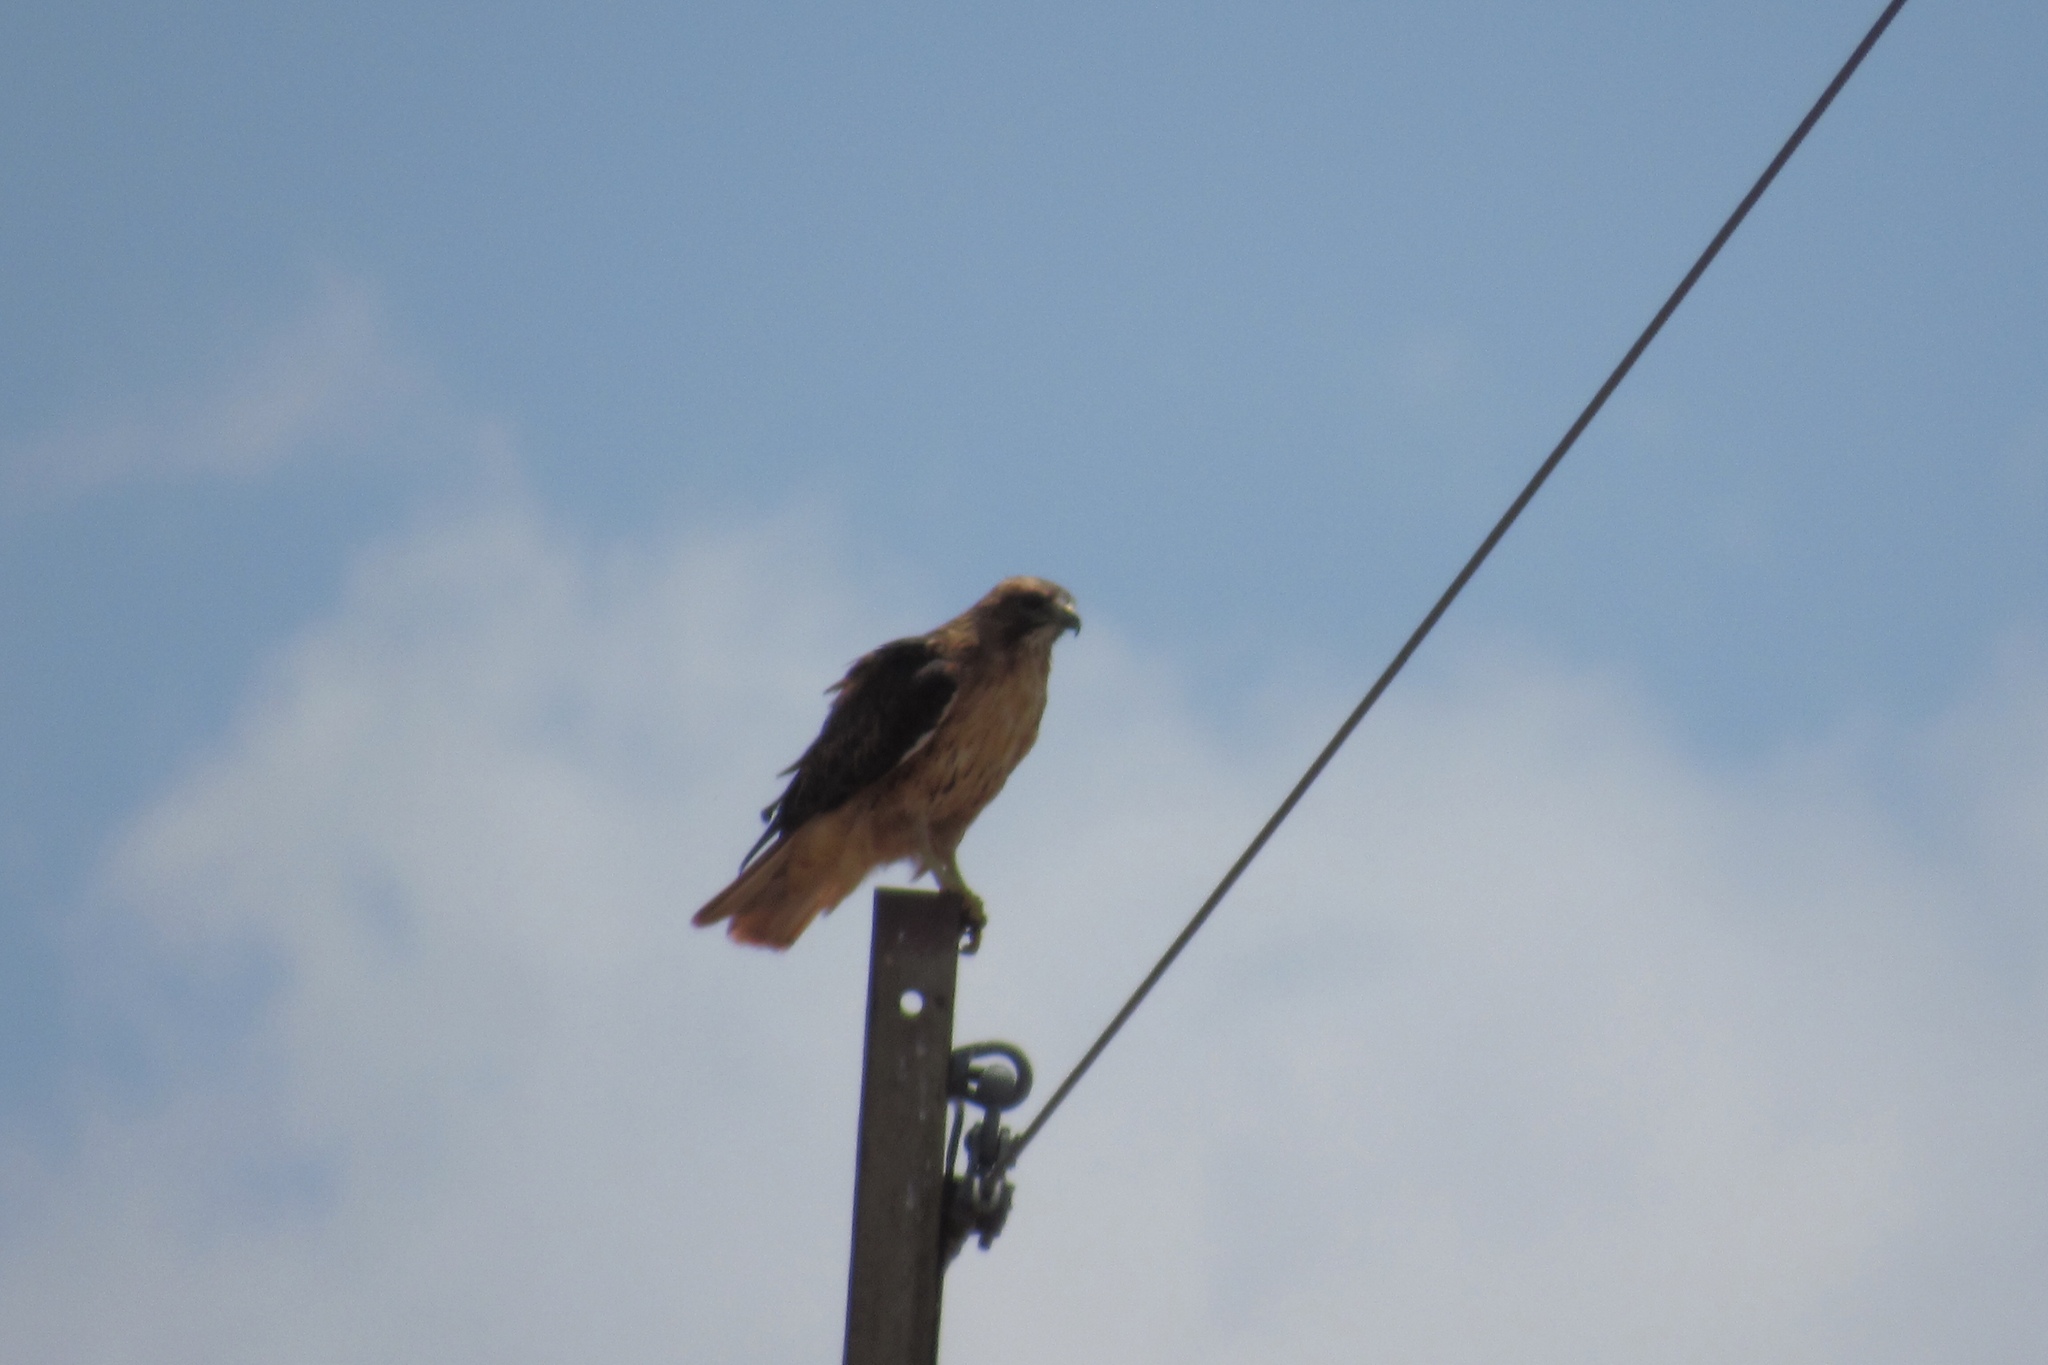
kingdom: Animalia
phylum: Chordata
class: Aves
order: Accipitriformes
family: Accipitridae
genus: Buteo
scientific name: Buteo jamaicensis
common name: Red-tailed hawk
